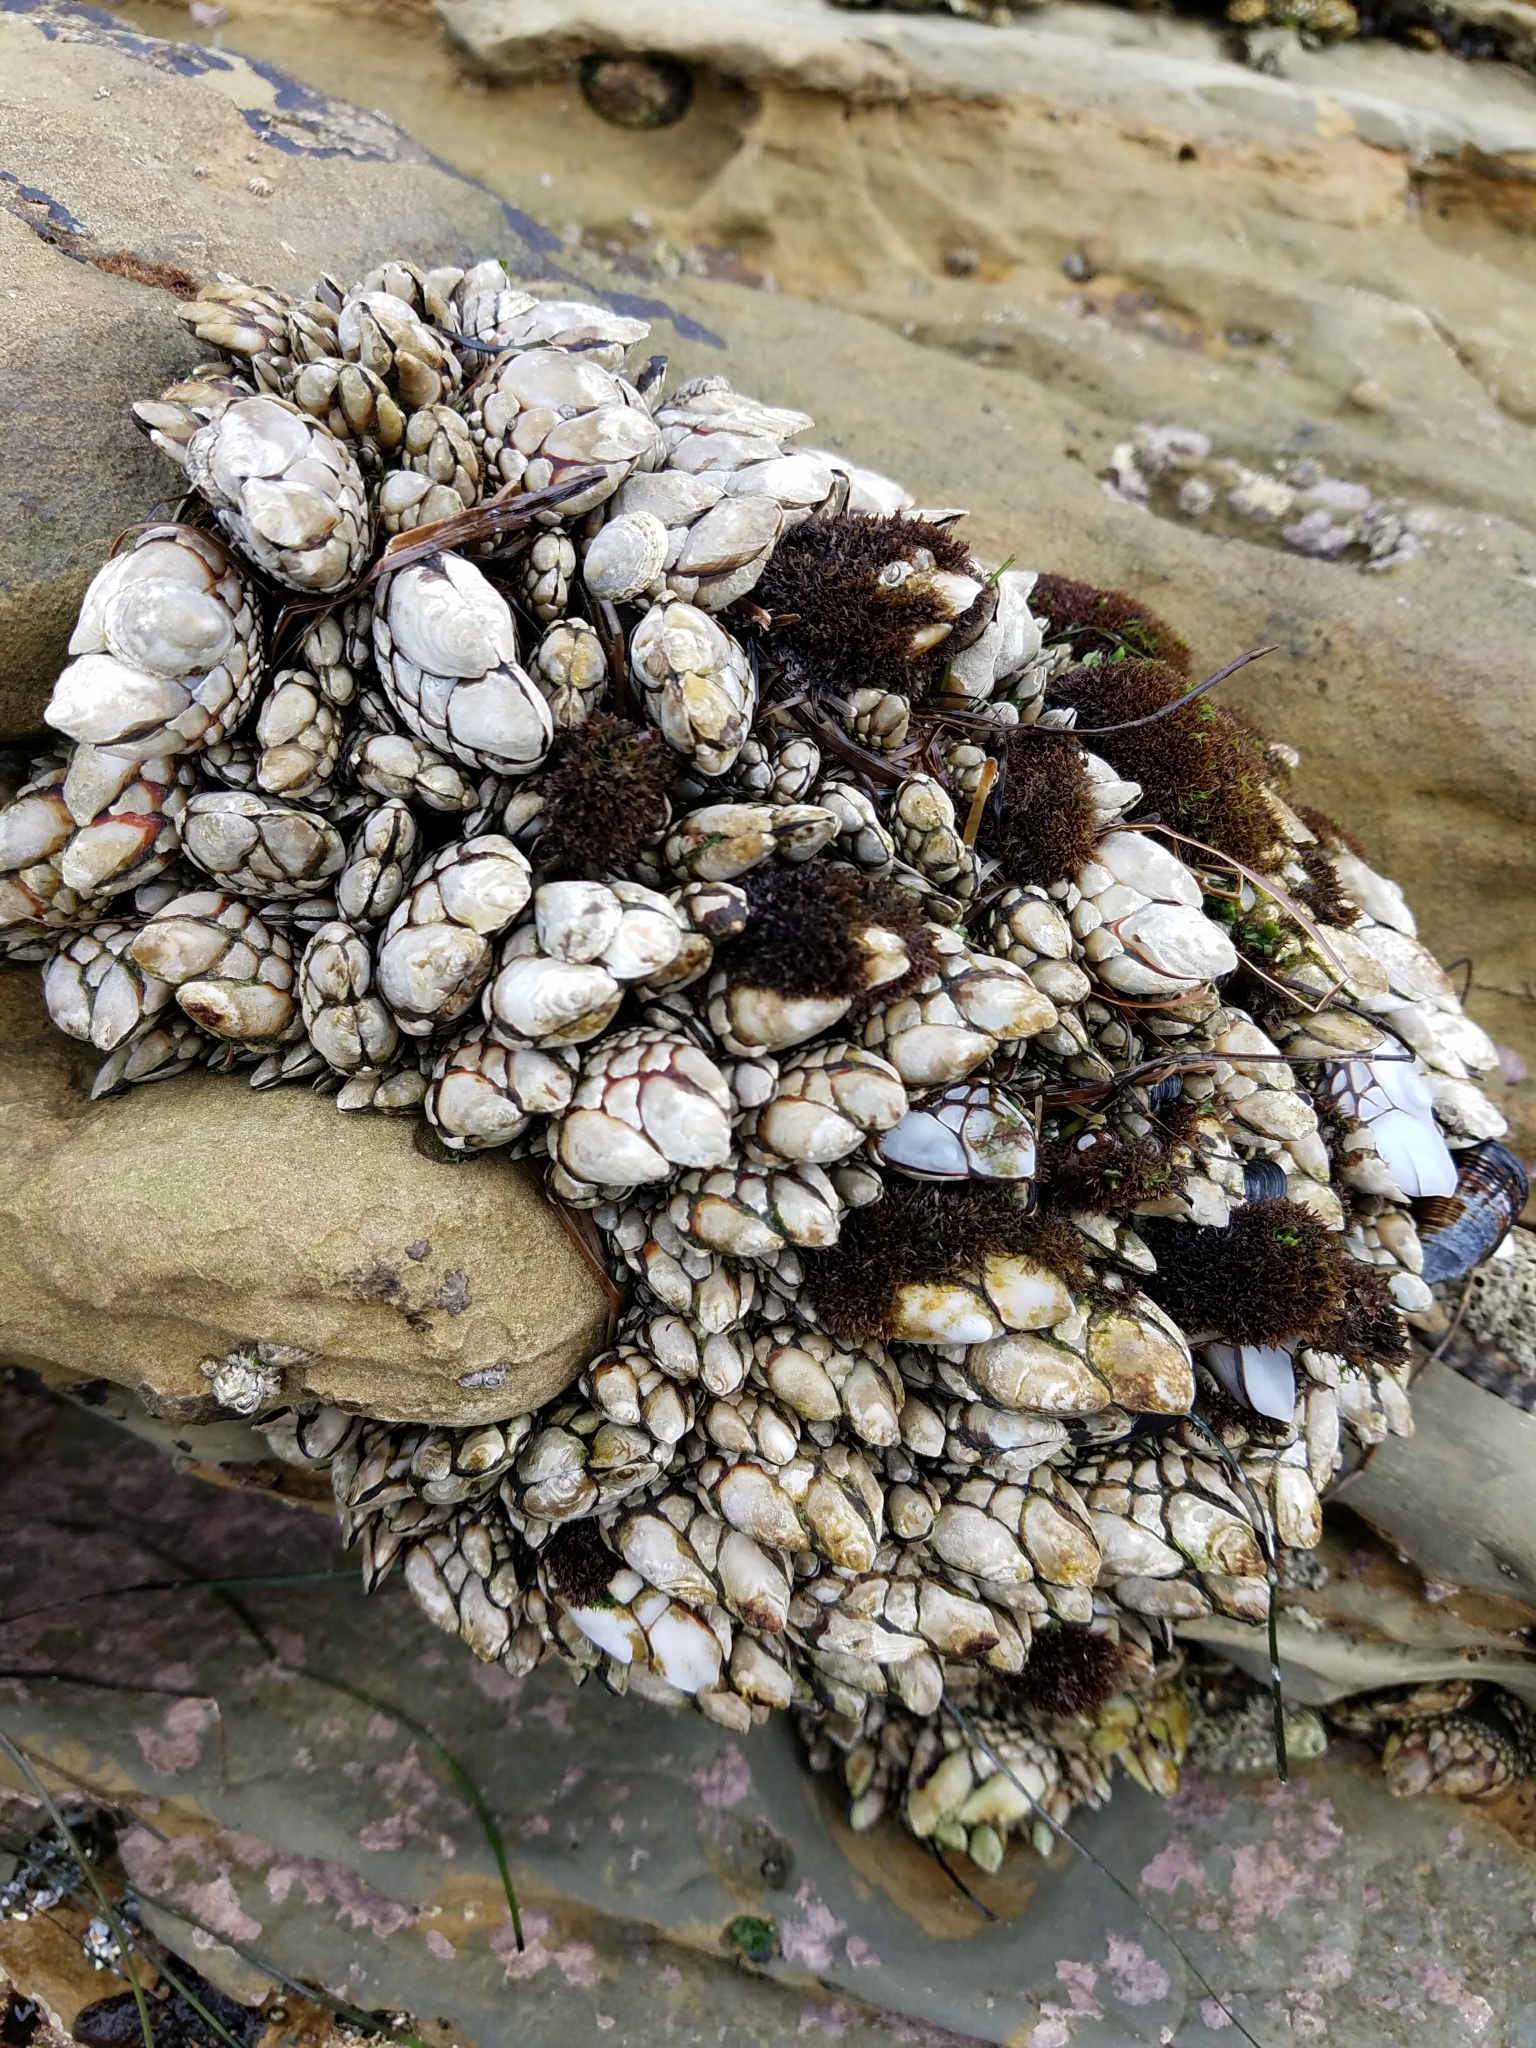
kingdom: Animalia
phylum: Arthropoda
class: Maxillopoda
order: Pedunculata
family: Pollicipedidae
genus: Pollicipes
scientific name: Pollicipes polymerus
